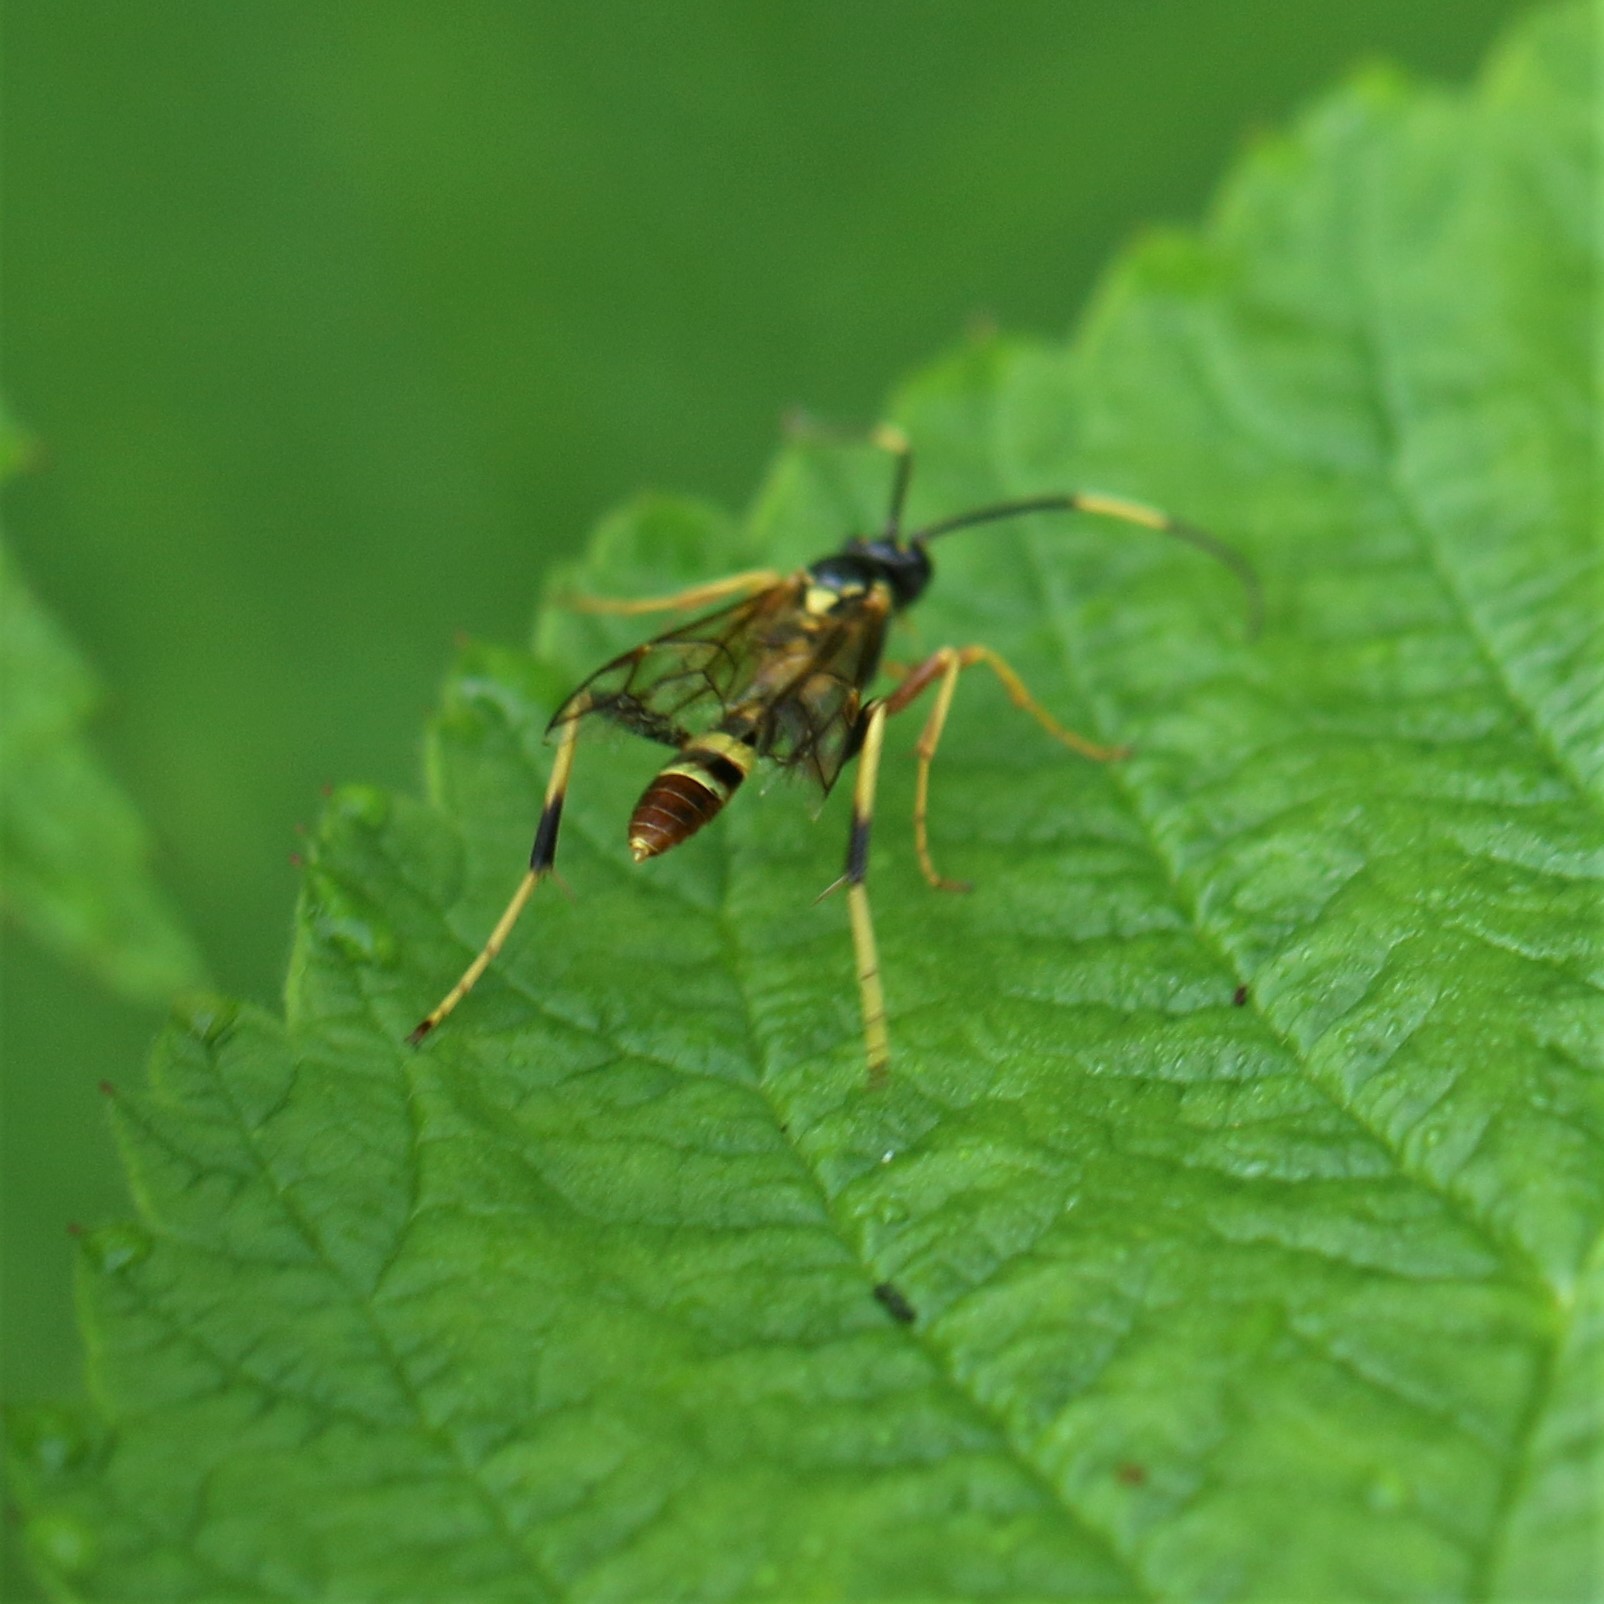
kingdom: Animalia
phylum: Arthropoda
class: Insecta
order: Hymenoptera
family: Ichneumonidae
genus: Polytribax
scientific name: Polytribax contiguus
